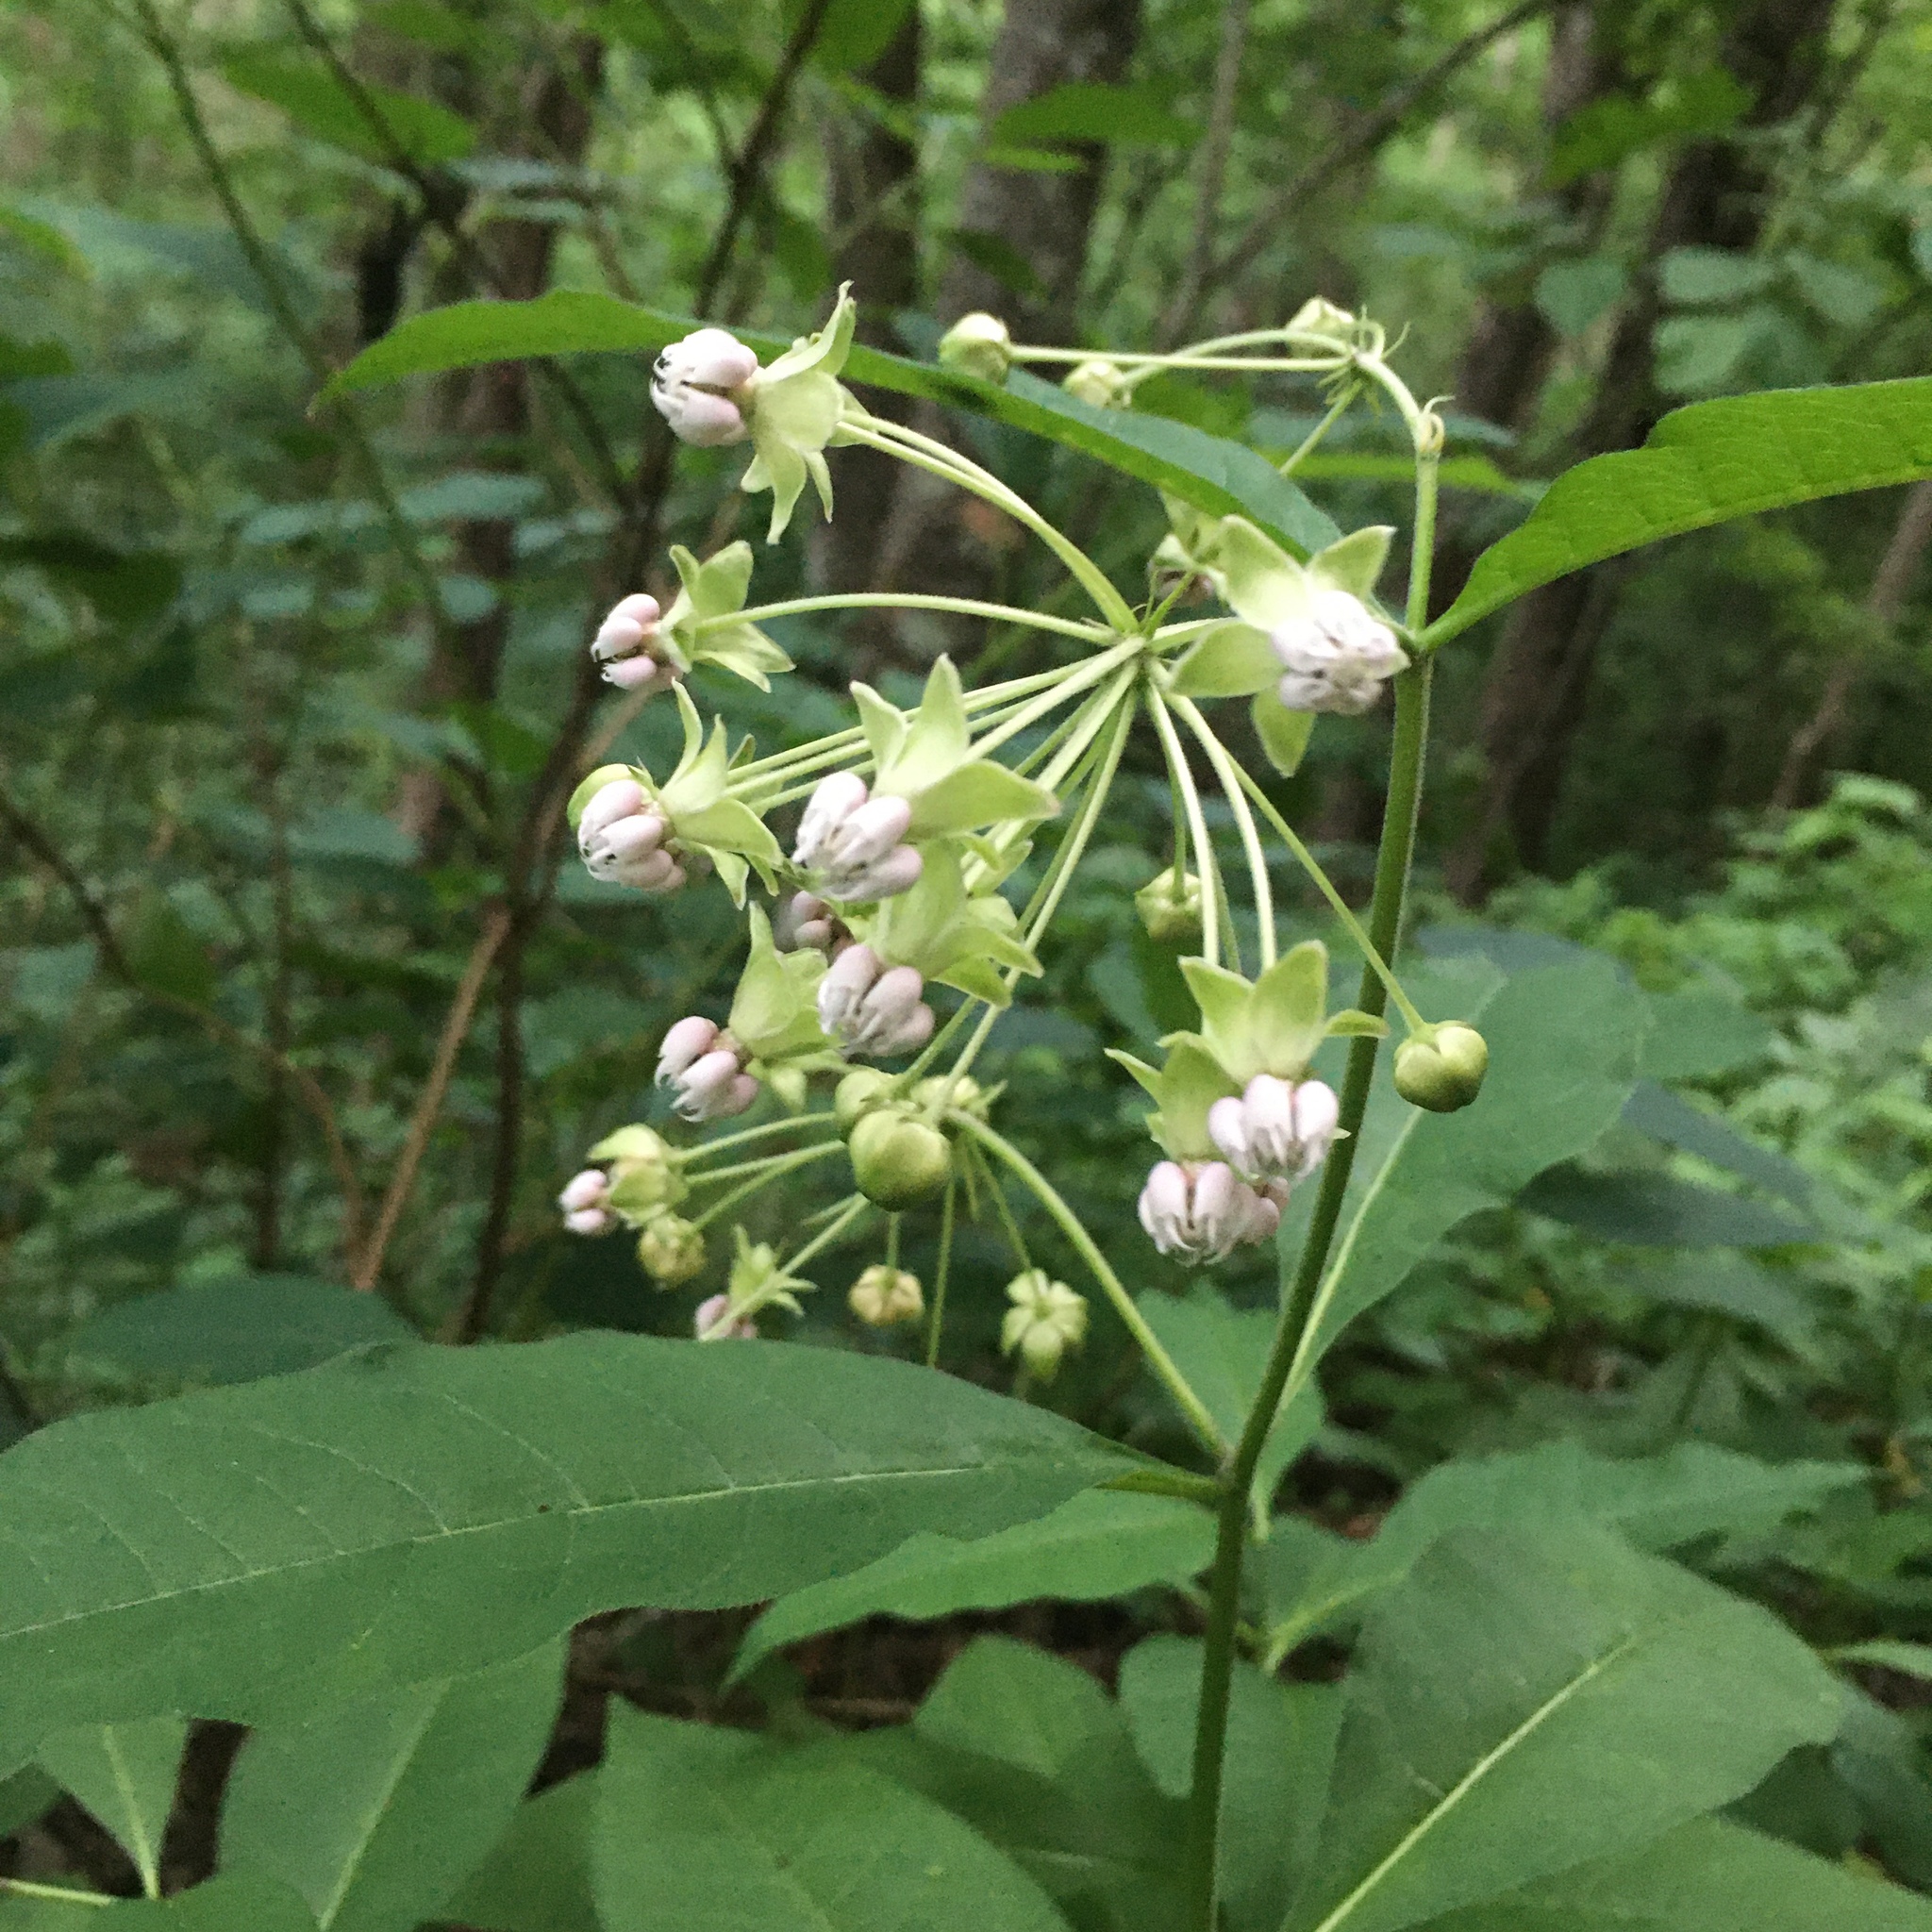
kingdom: Plantae
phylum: Tracheophyta
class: Magnoliopsida
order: Gentianales
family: Apocynaceae
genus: Asclepias
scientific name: Asclepias exaltata
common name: Poke milkweed
